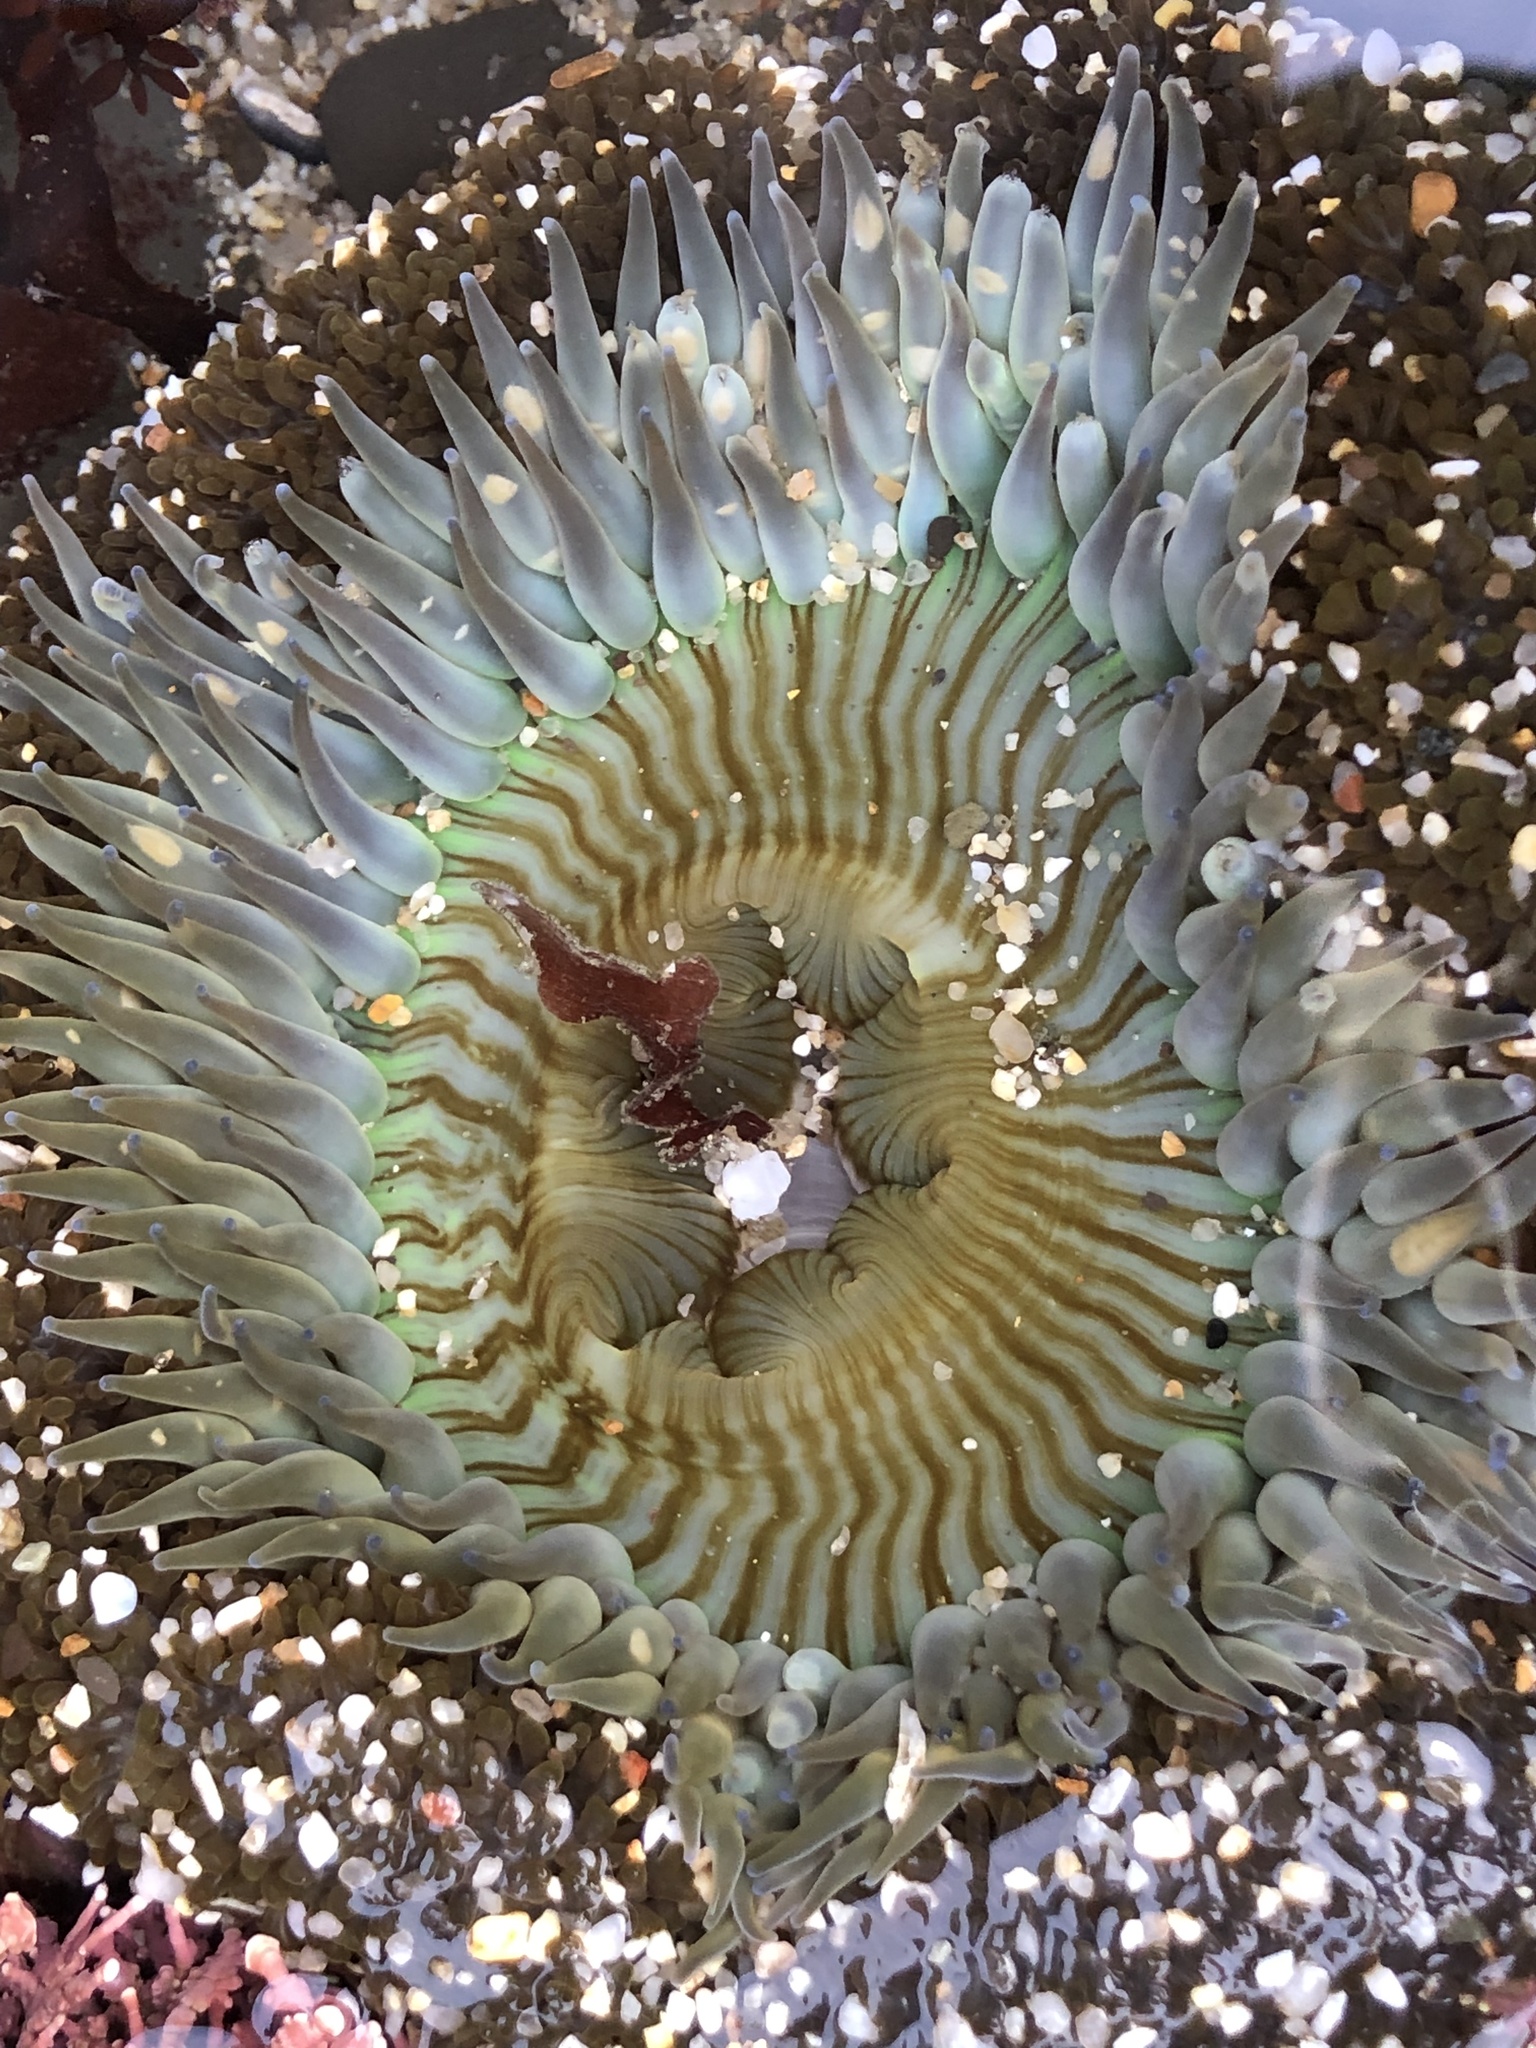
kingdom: Animalia
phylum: Cnidaria
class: Anthozoa
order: Actiniaria
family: Actiniidae
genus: Anthopleura
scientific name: Anthopleura sola
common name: Sun anemone
